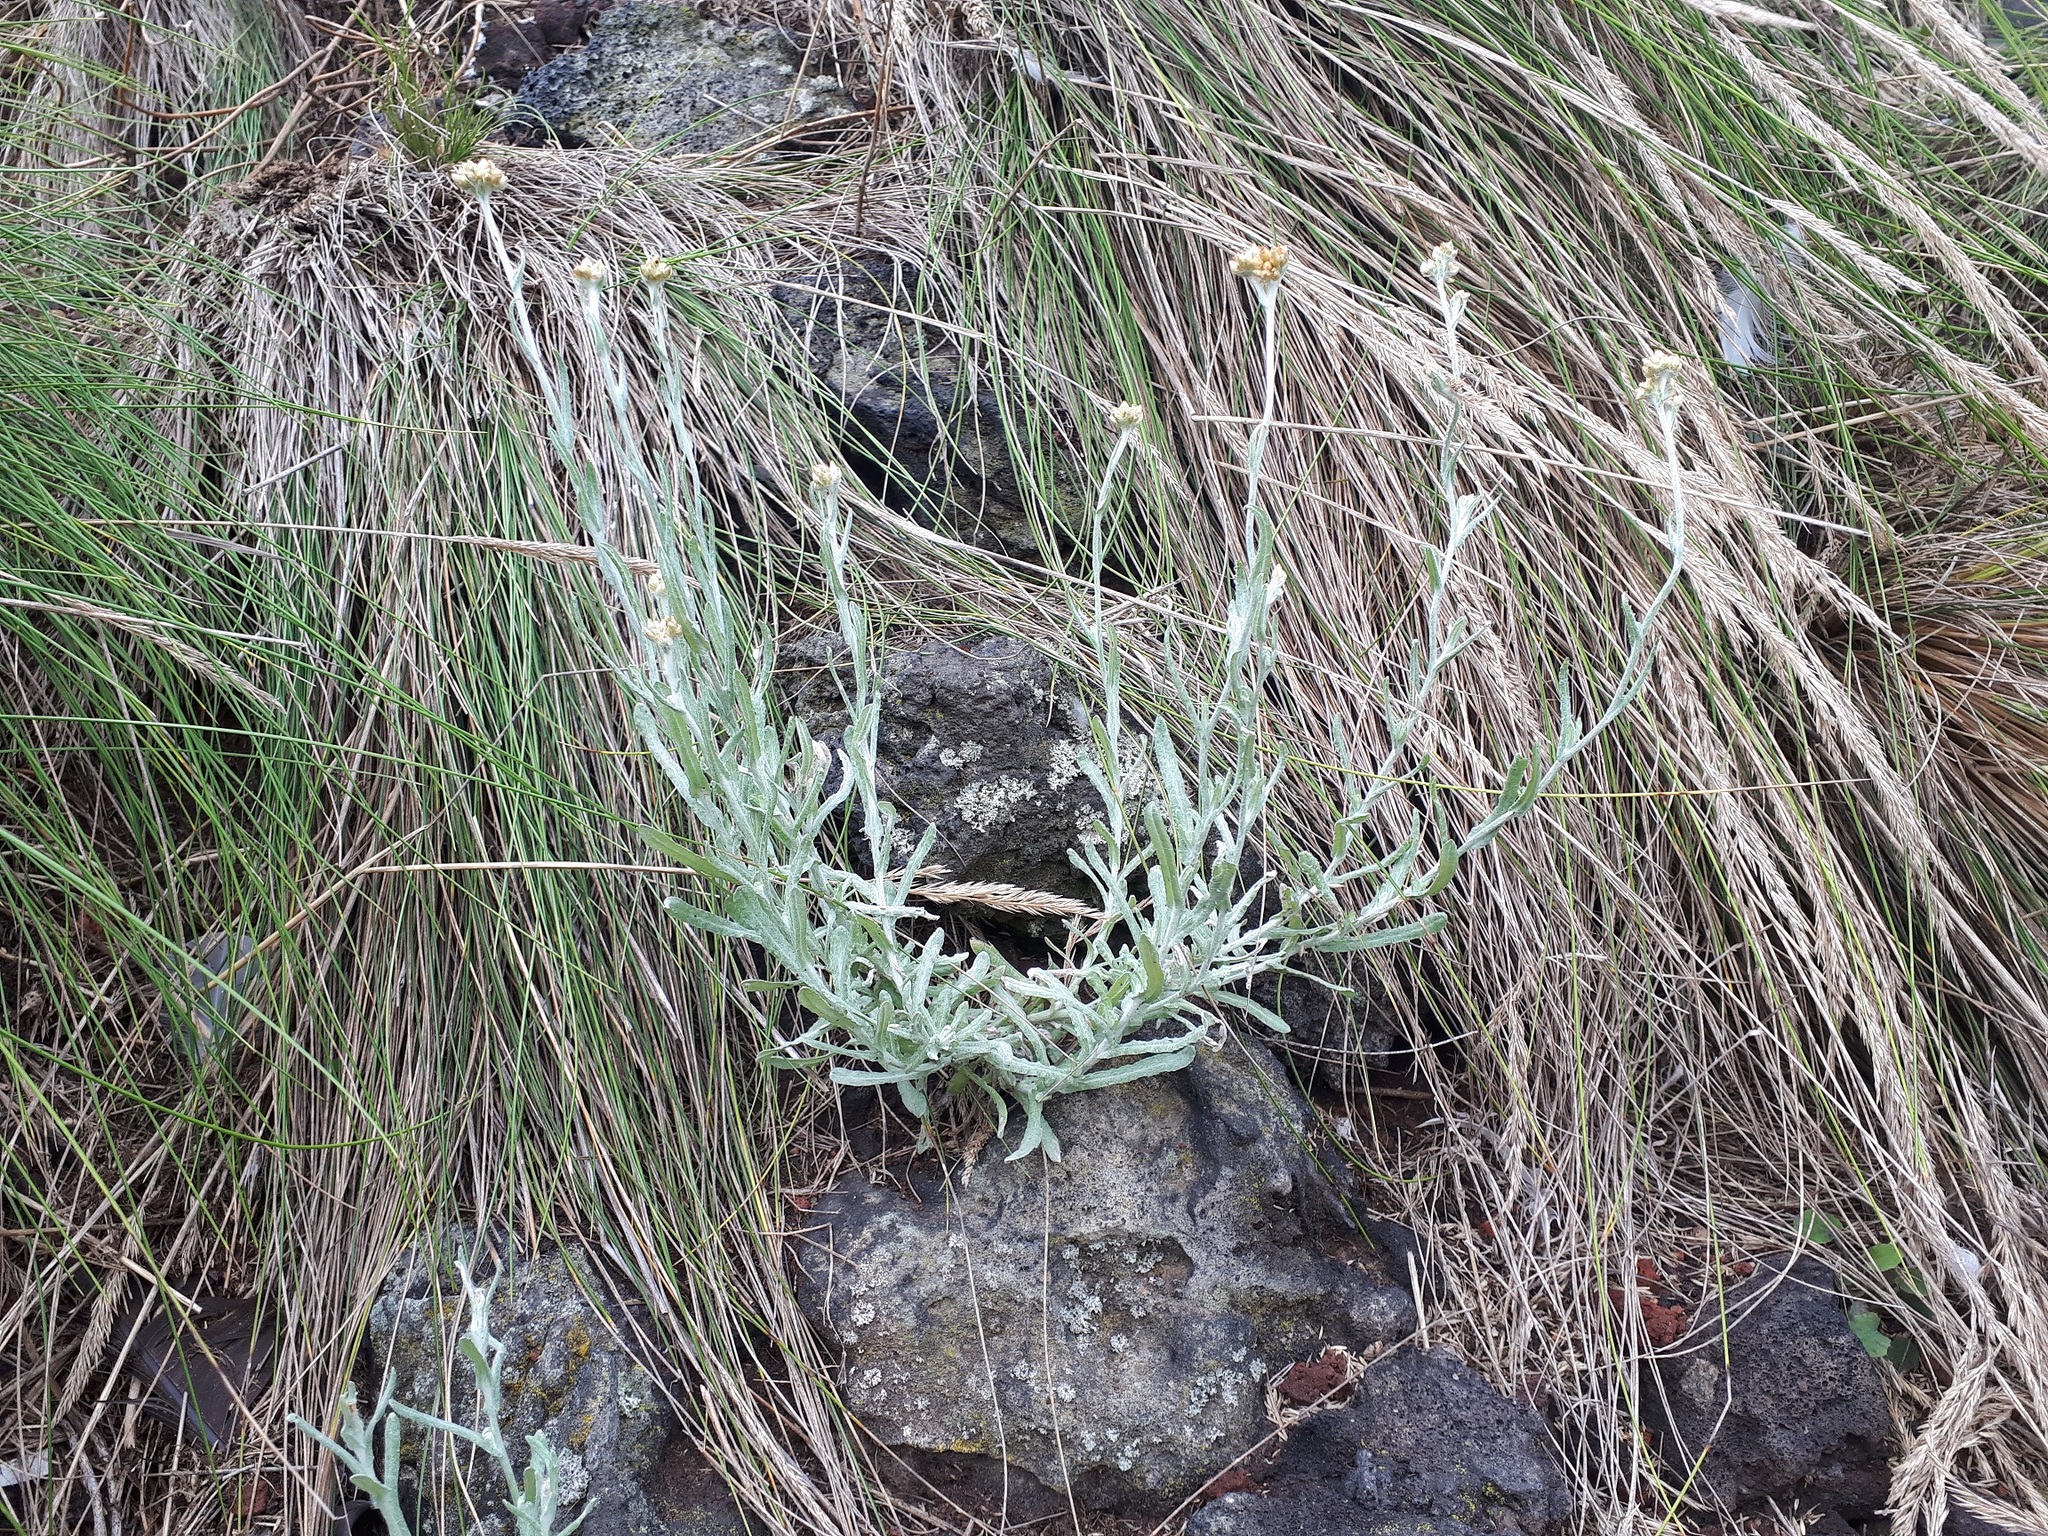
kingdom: Plantae
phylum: Tracheophyta
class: Magnoliopsida
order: Asterales
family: Asteraceae
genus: Helichrysum
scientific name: Helichrysum luteoalbum
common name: Daisy
